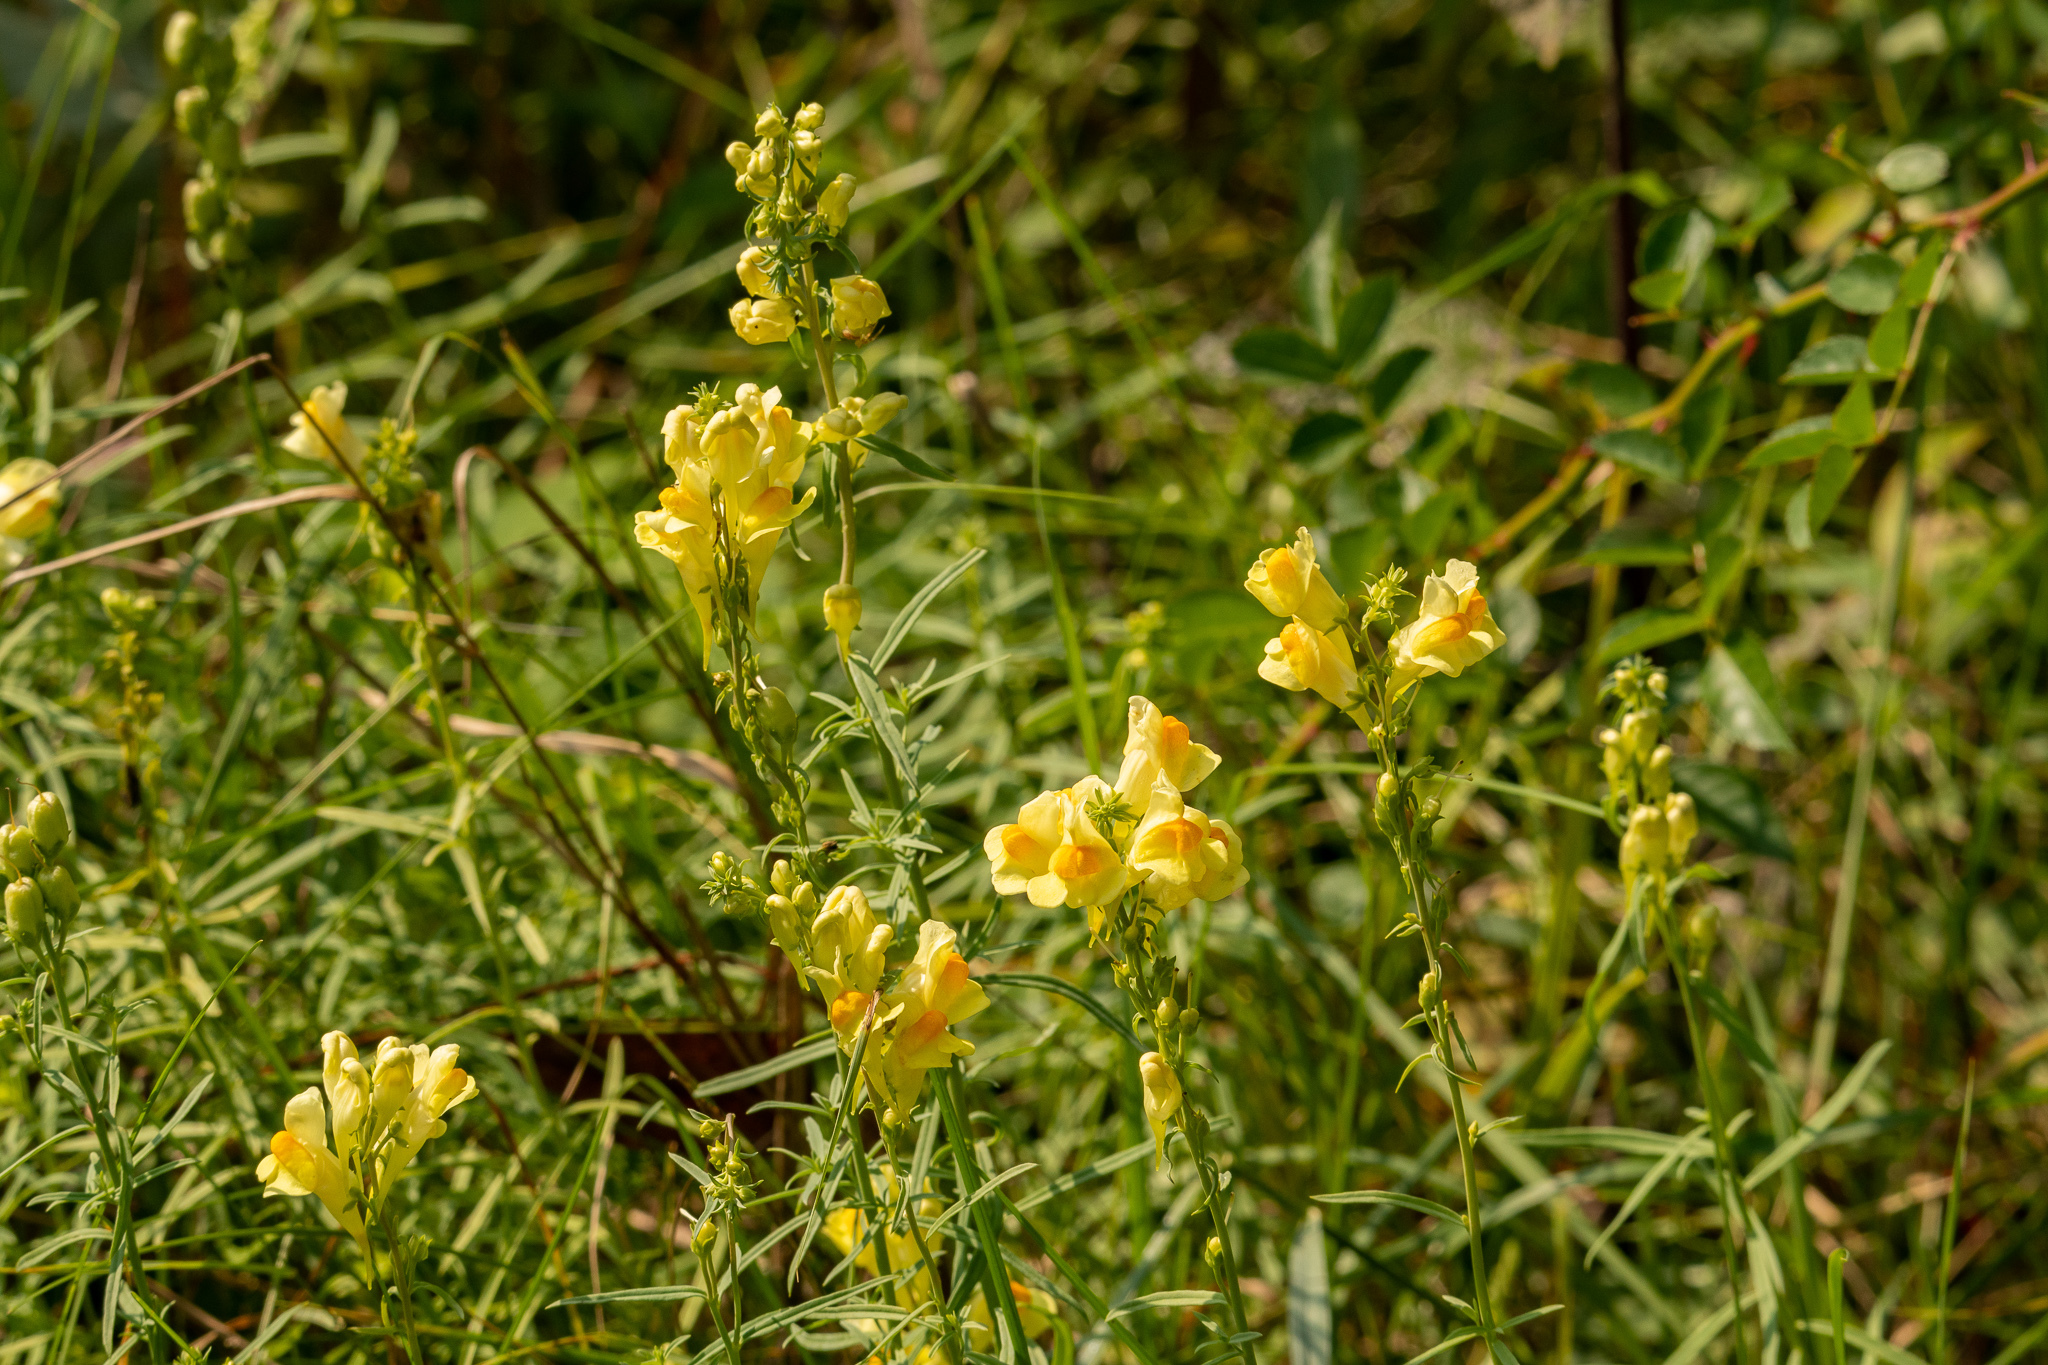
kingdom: Plantae
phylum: Tracheophyta
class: Magnoliopsida
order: Lamiales
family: Plantaginaceae
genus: Linaria
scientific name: Linaria vulgaris
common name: Butter and eggs
